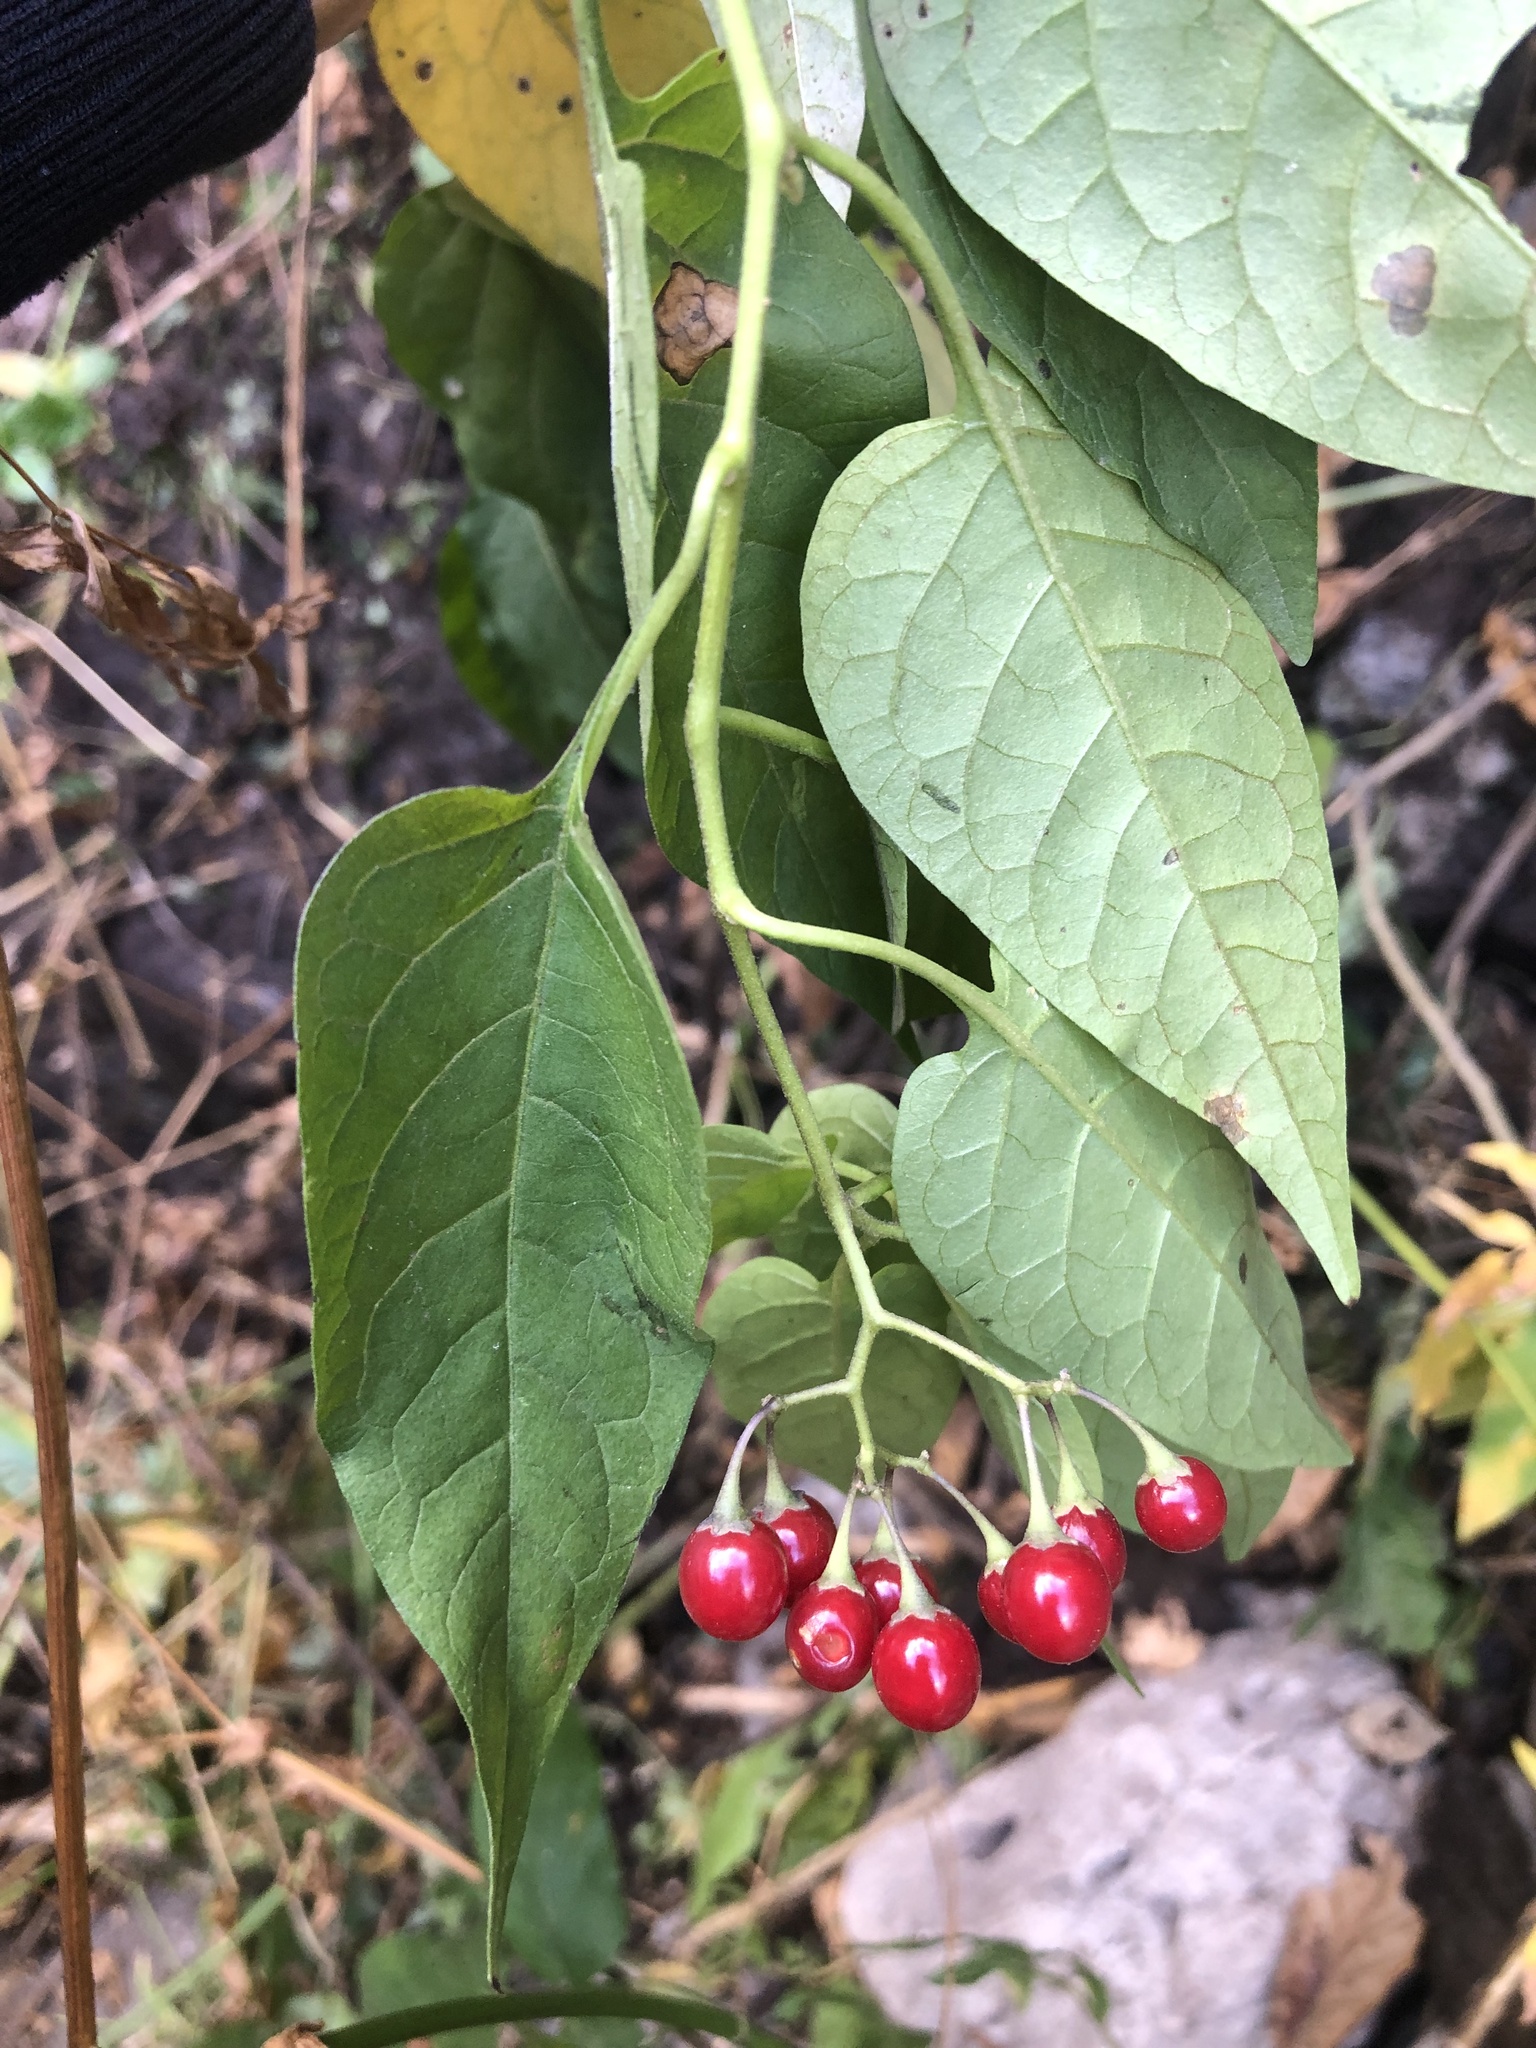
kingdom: Plantae
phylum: Tracheophyta
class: Magnoliopsida
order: Solanales
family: Solanaceae
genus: Solanum
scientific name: Solanum dulcamara
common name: Climbing nightshade
